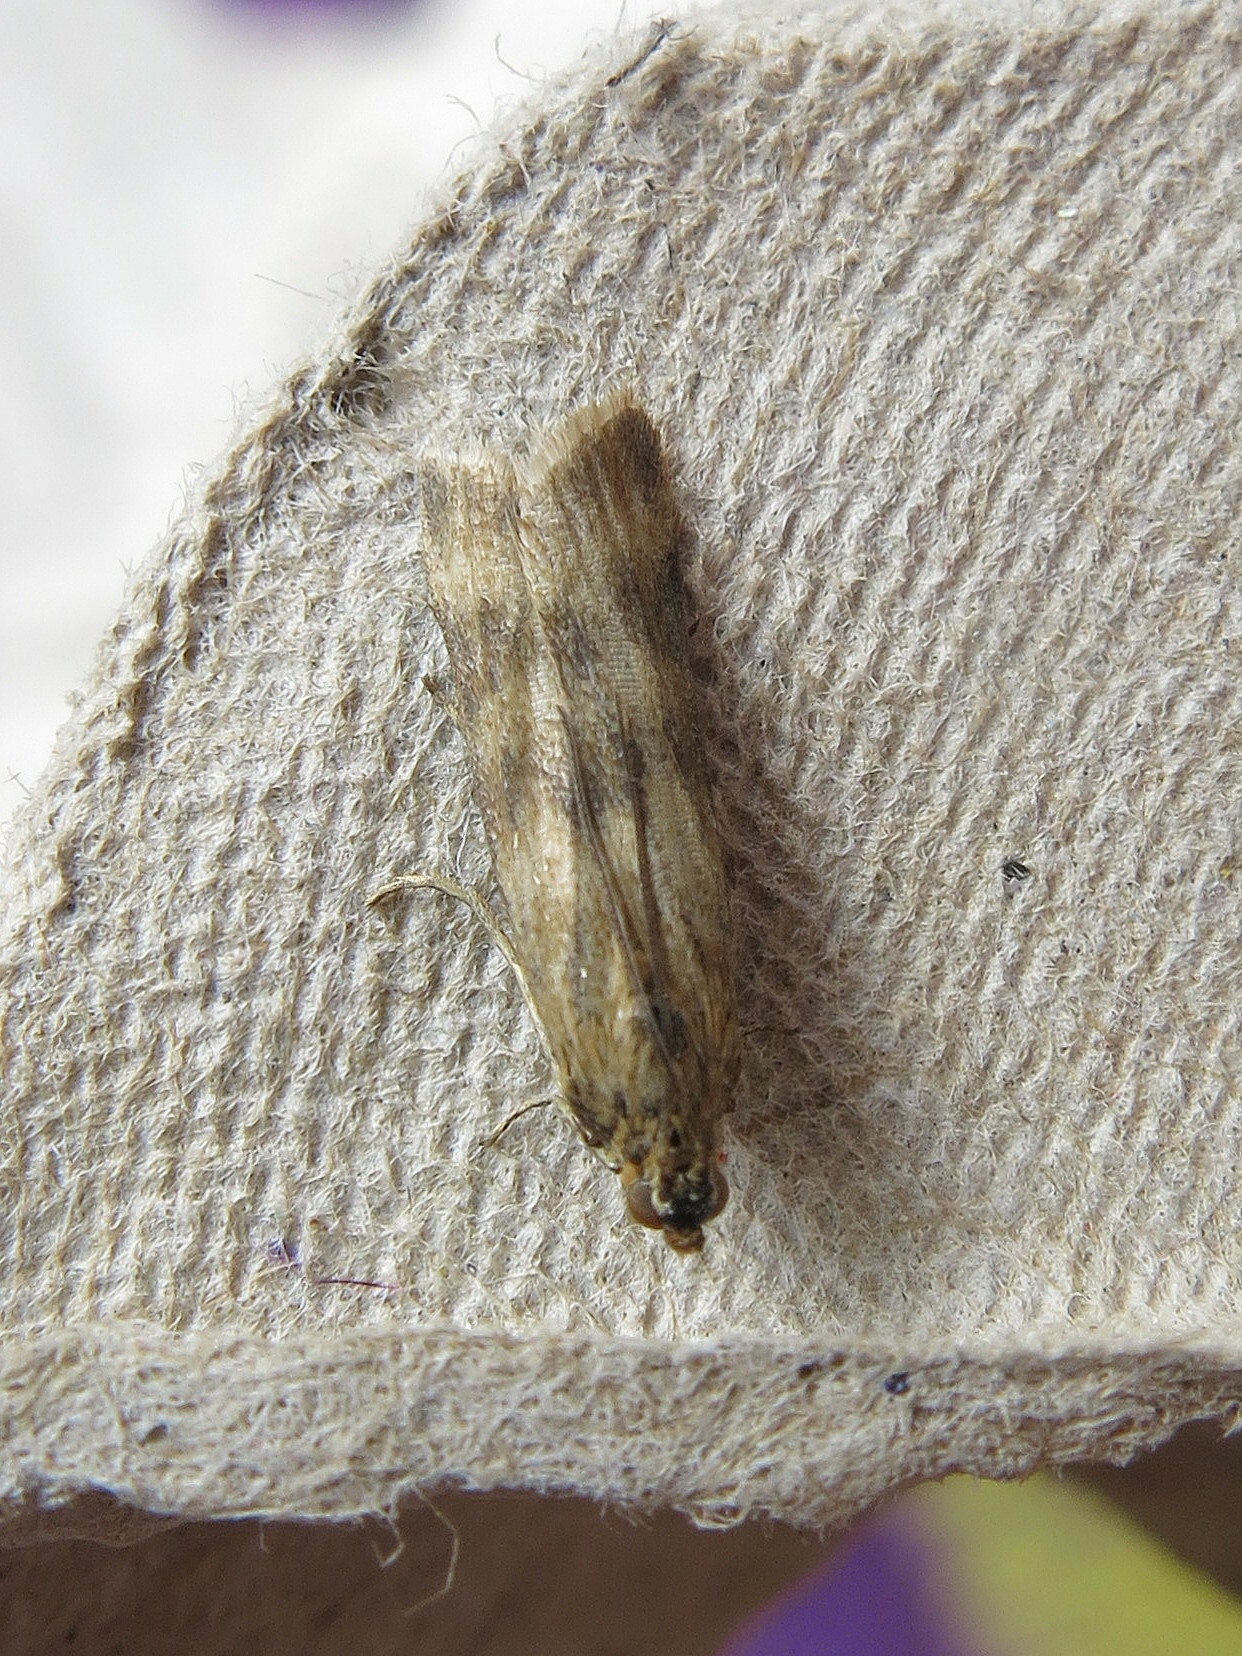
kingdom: Animalia
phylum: Arthropoda
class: Insecta
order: Lepidoptera
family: Pyralidae
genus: Homoeosoma
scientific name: Homoeosoma sinuella
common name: Twin-barred knot-horn
